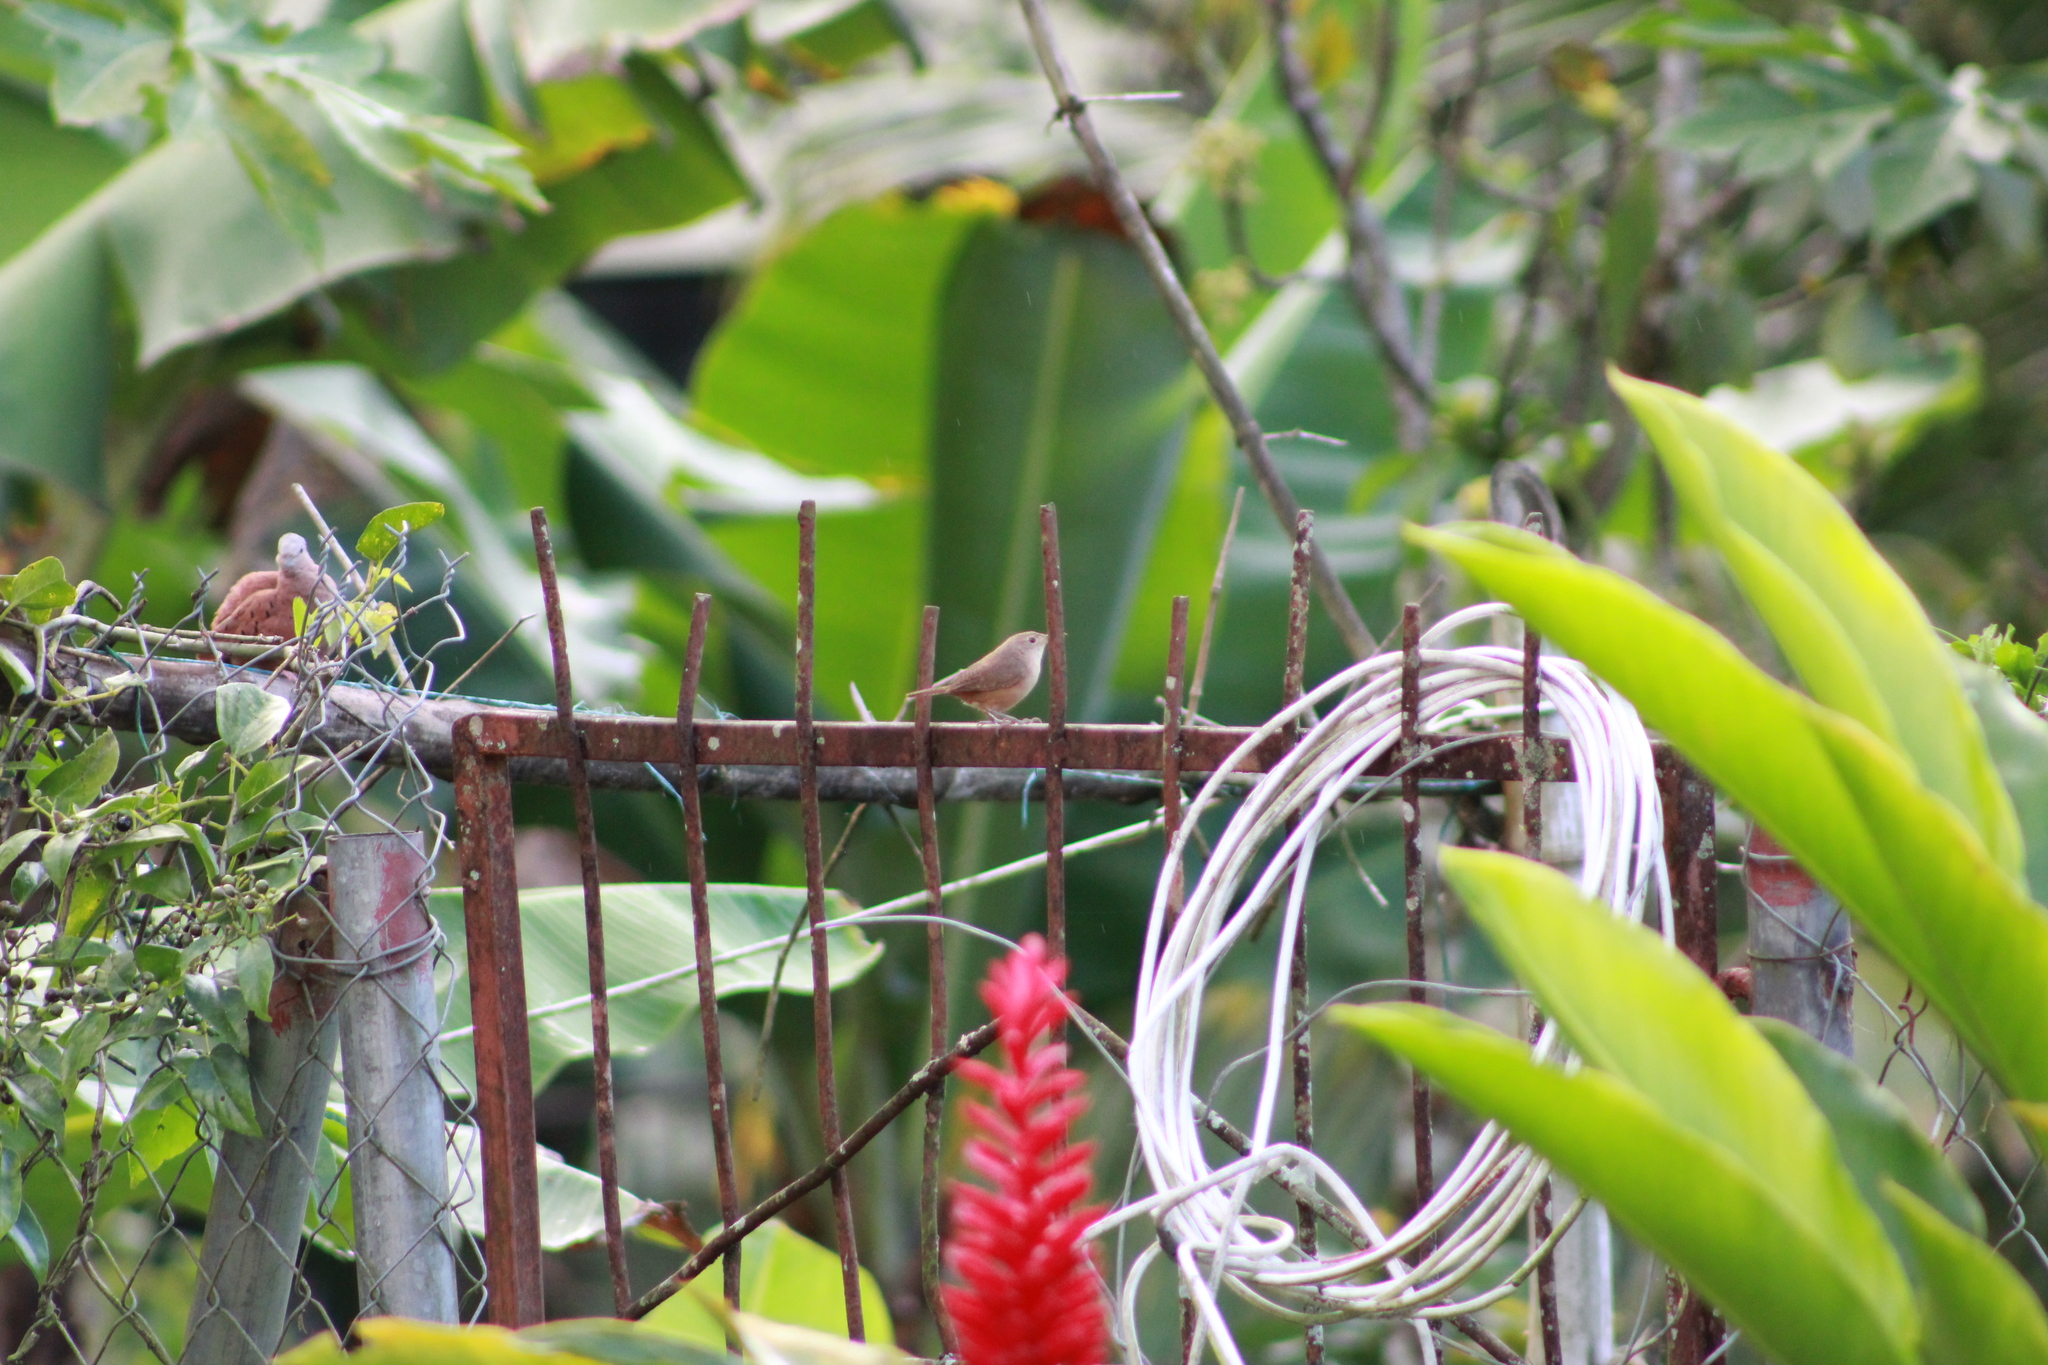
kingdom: Animalia
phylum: Chordata
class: Aves
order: Passeriformes
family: Troglodytidae
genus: Troglodytes
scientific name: Troglodytes aedon
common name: House wren
